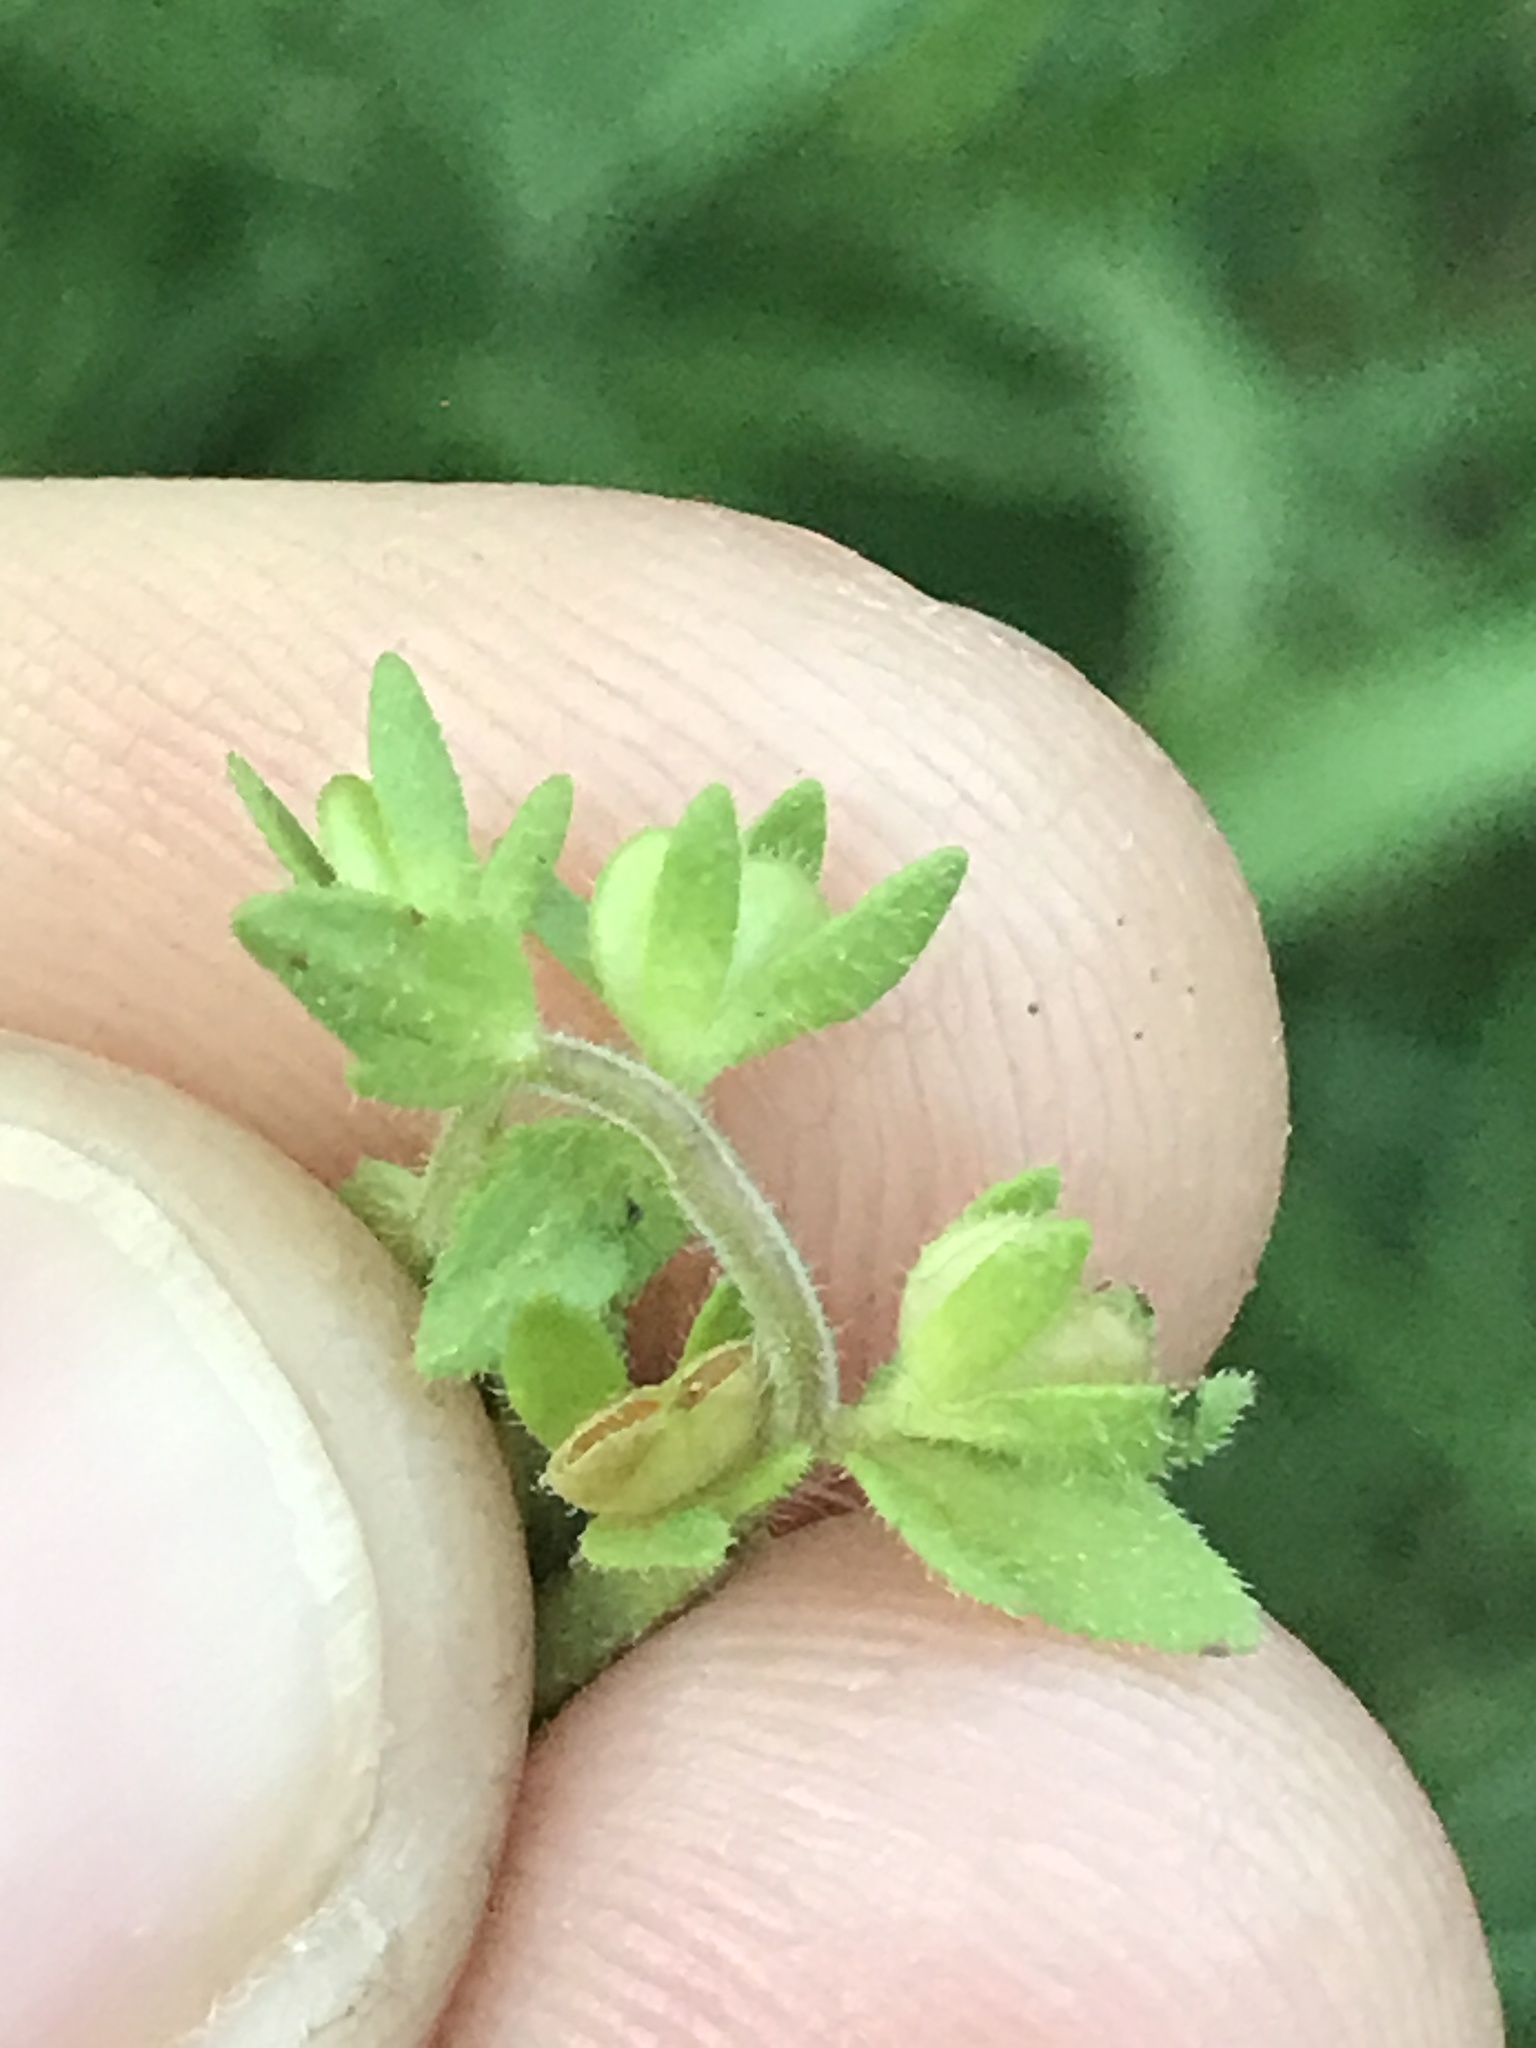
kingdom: Plantae
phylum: Tracheophyta
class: Magnoliopsida
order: Lamiales
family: Plantaginaceae
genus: Veronica
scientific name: Veronica arvensis
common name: Corn speedwell
